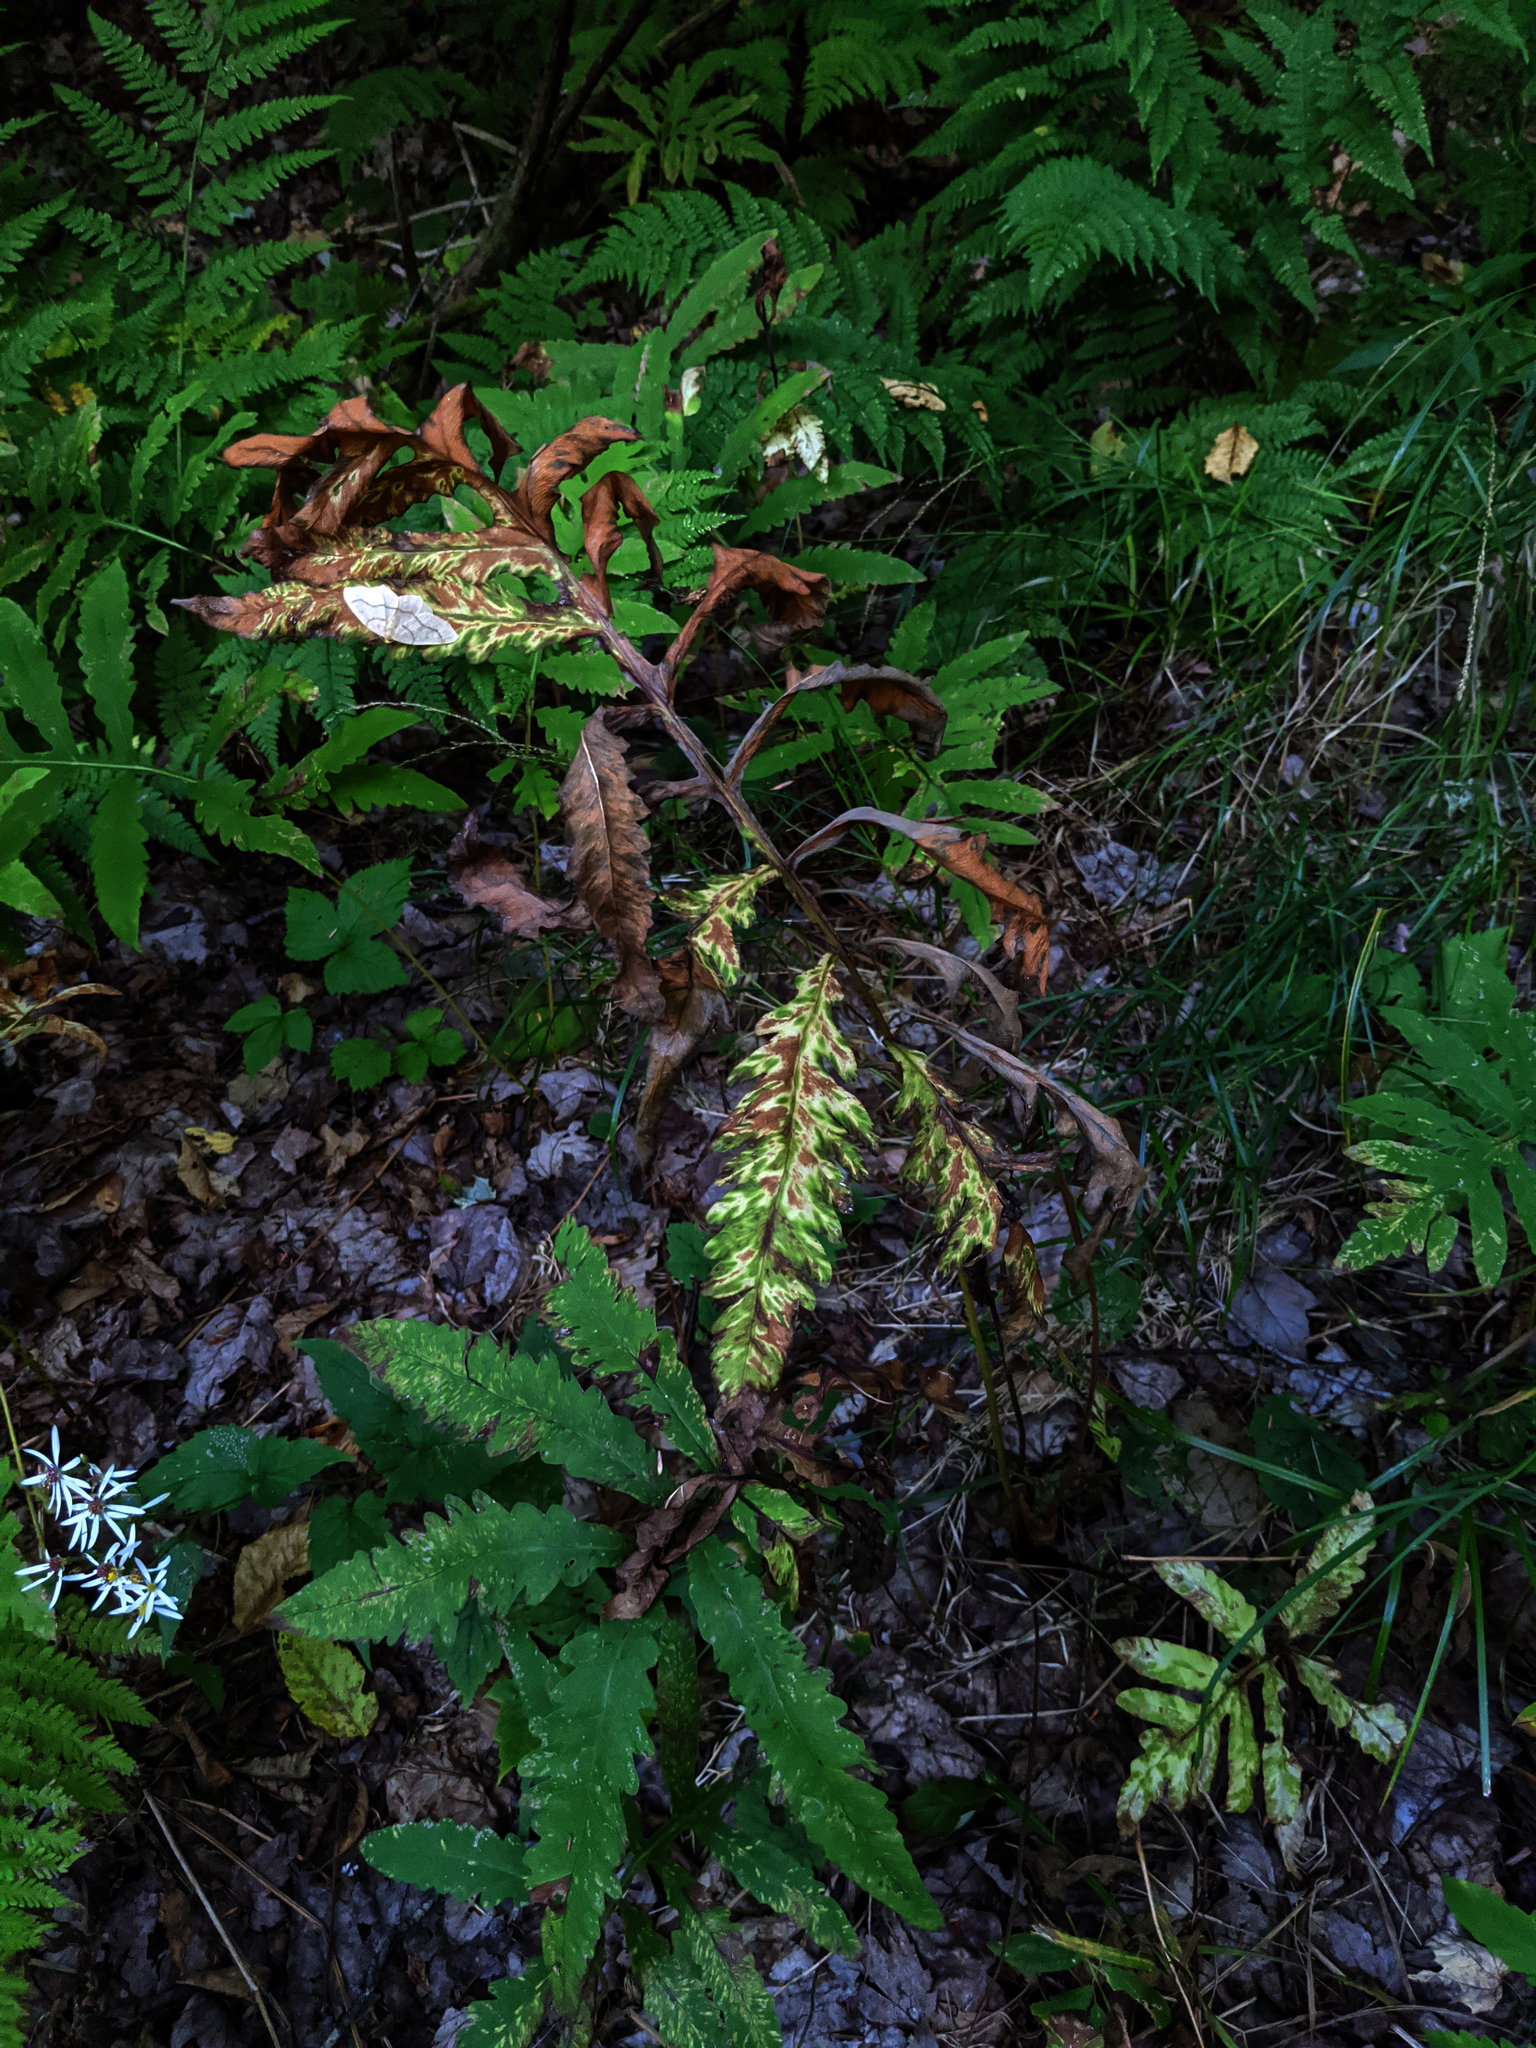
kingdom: Plantae
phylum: Tracheophyta
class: Polypodiopsida
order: Polypodiales
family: Onocleaceae
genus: Onoclea
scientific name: Onoclea sensibilis
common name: Sensitive fern
